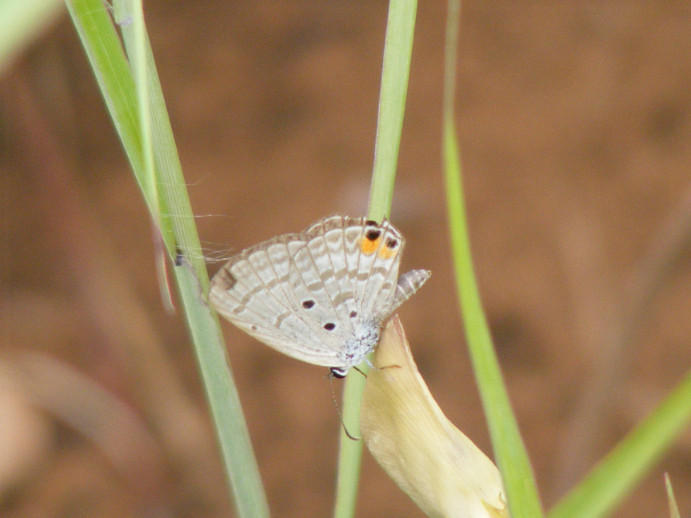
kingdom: Animalia
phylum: Arthropoda
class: Insecta
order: Lepidoptera
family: Lycaenidae
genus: Euchrysops
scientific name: Euchrysops osiris
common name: African blue
